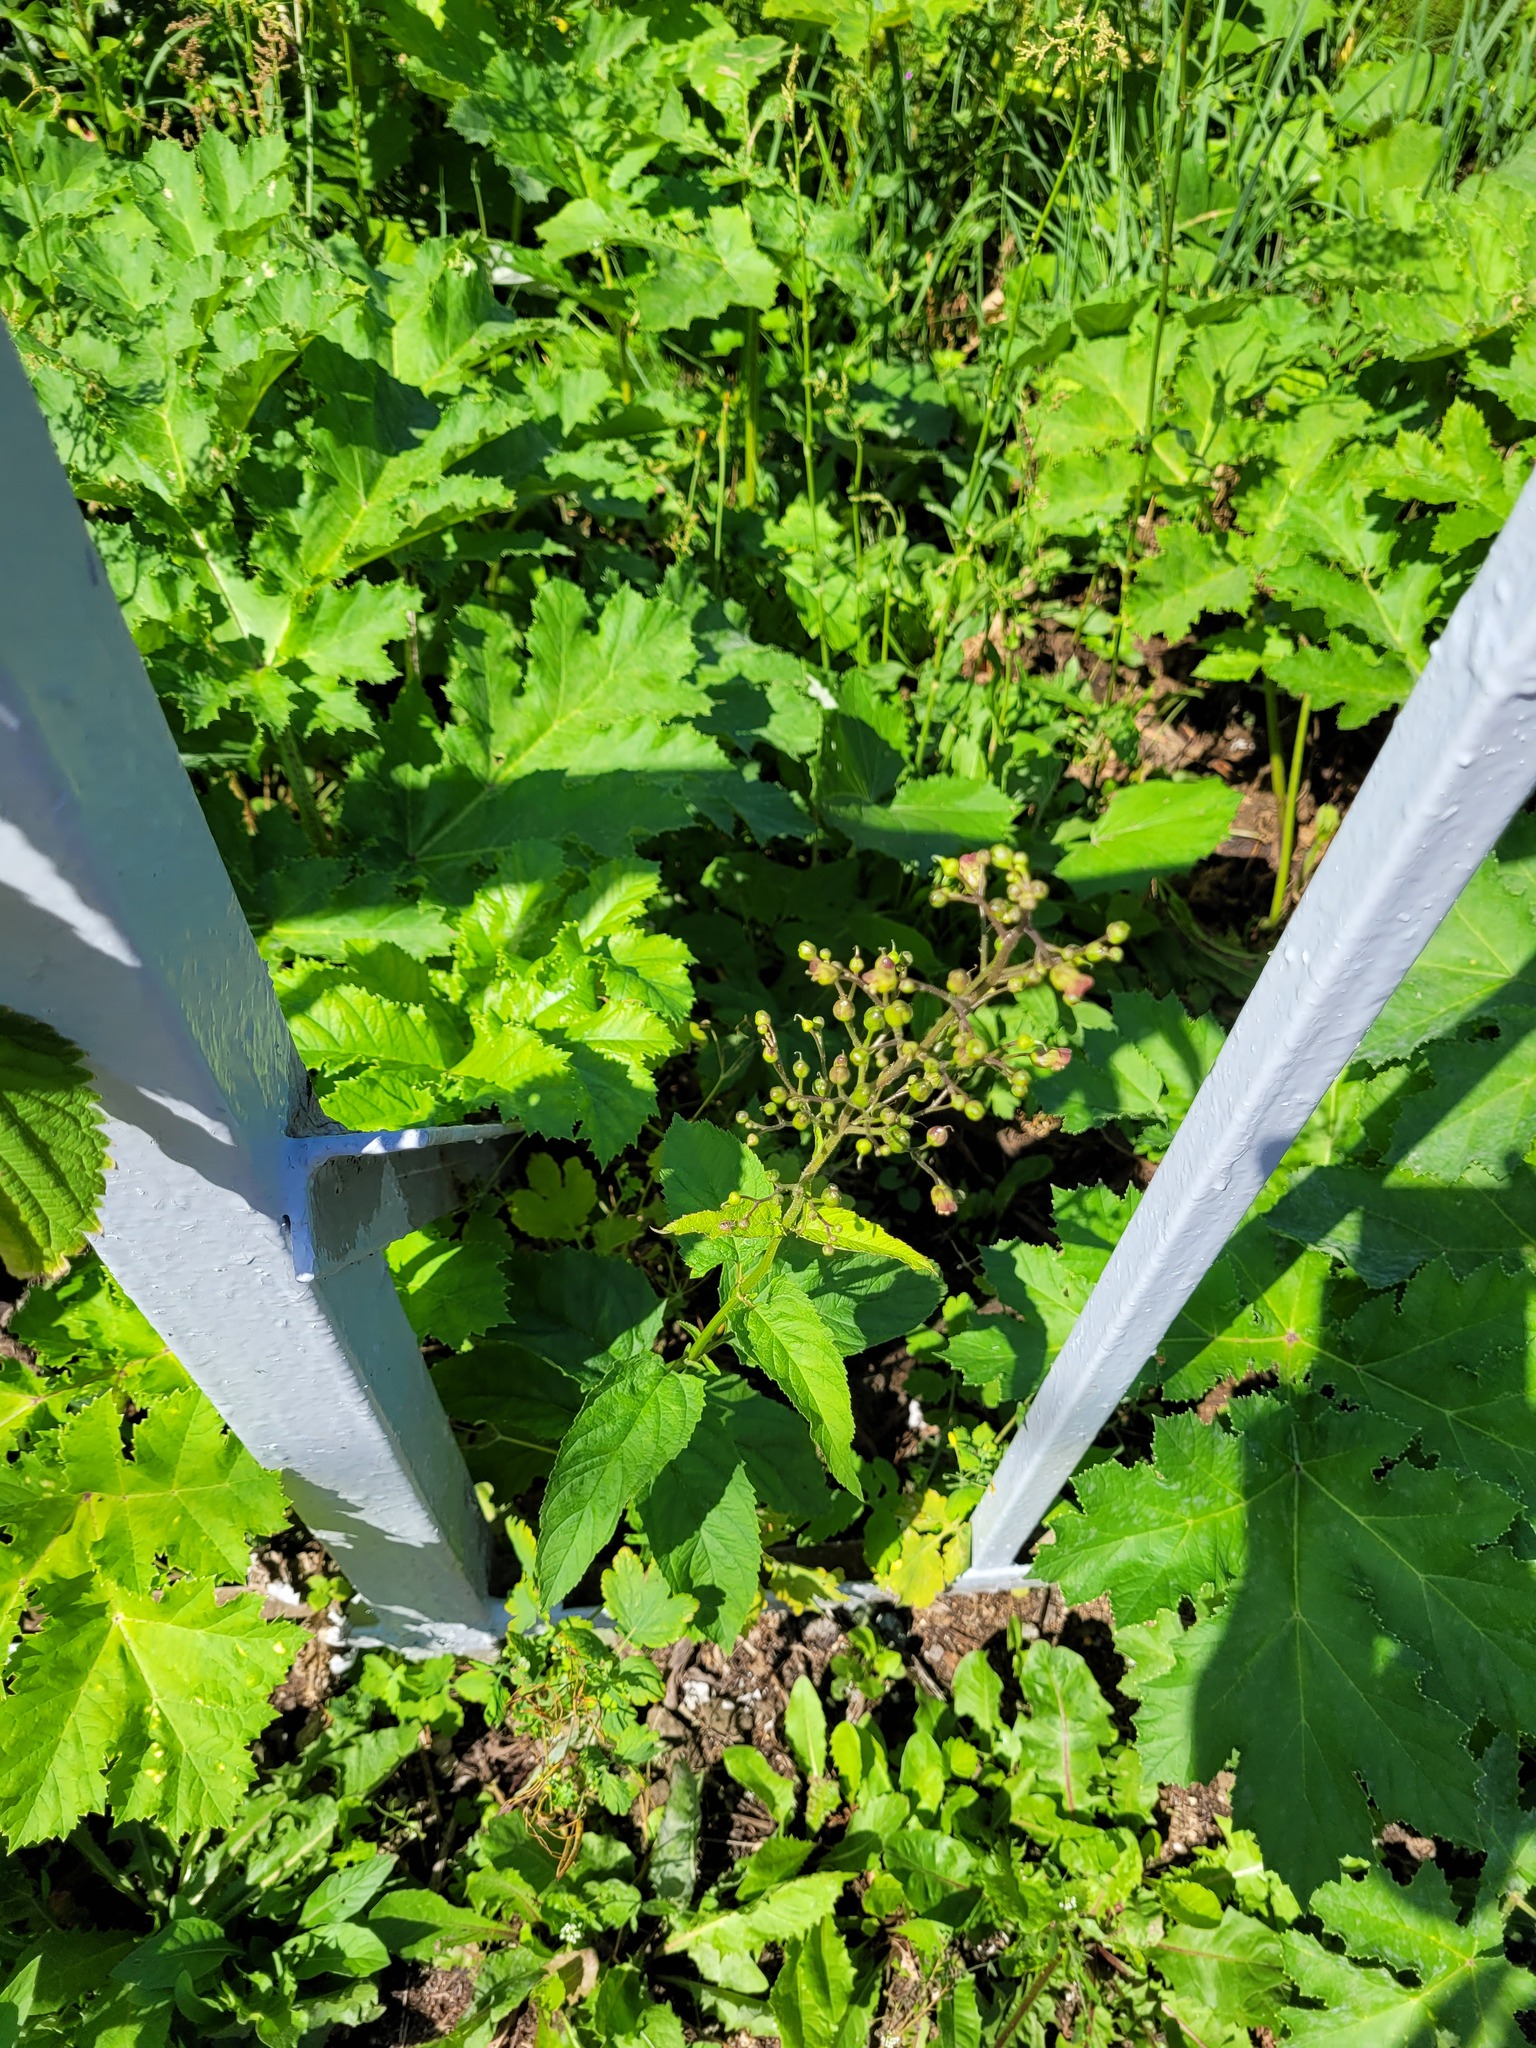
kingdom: Plantae
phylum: Tracheophyta
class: Magnoliopsida
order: Lamiales
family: Scrophulariaceae
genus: Scrophularia
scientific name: Scrophularia nodosa
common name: Common figwort
